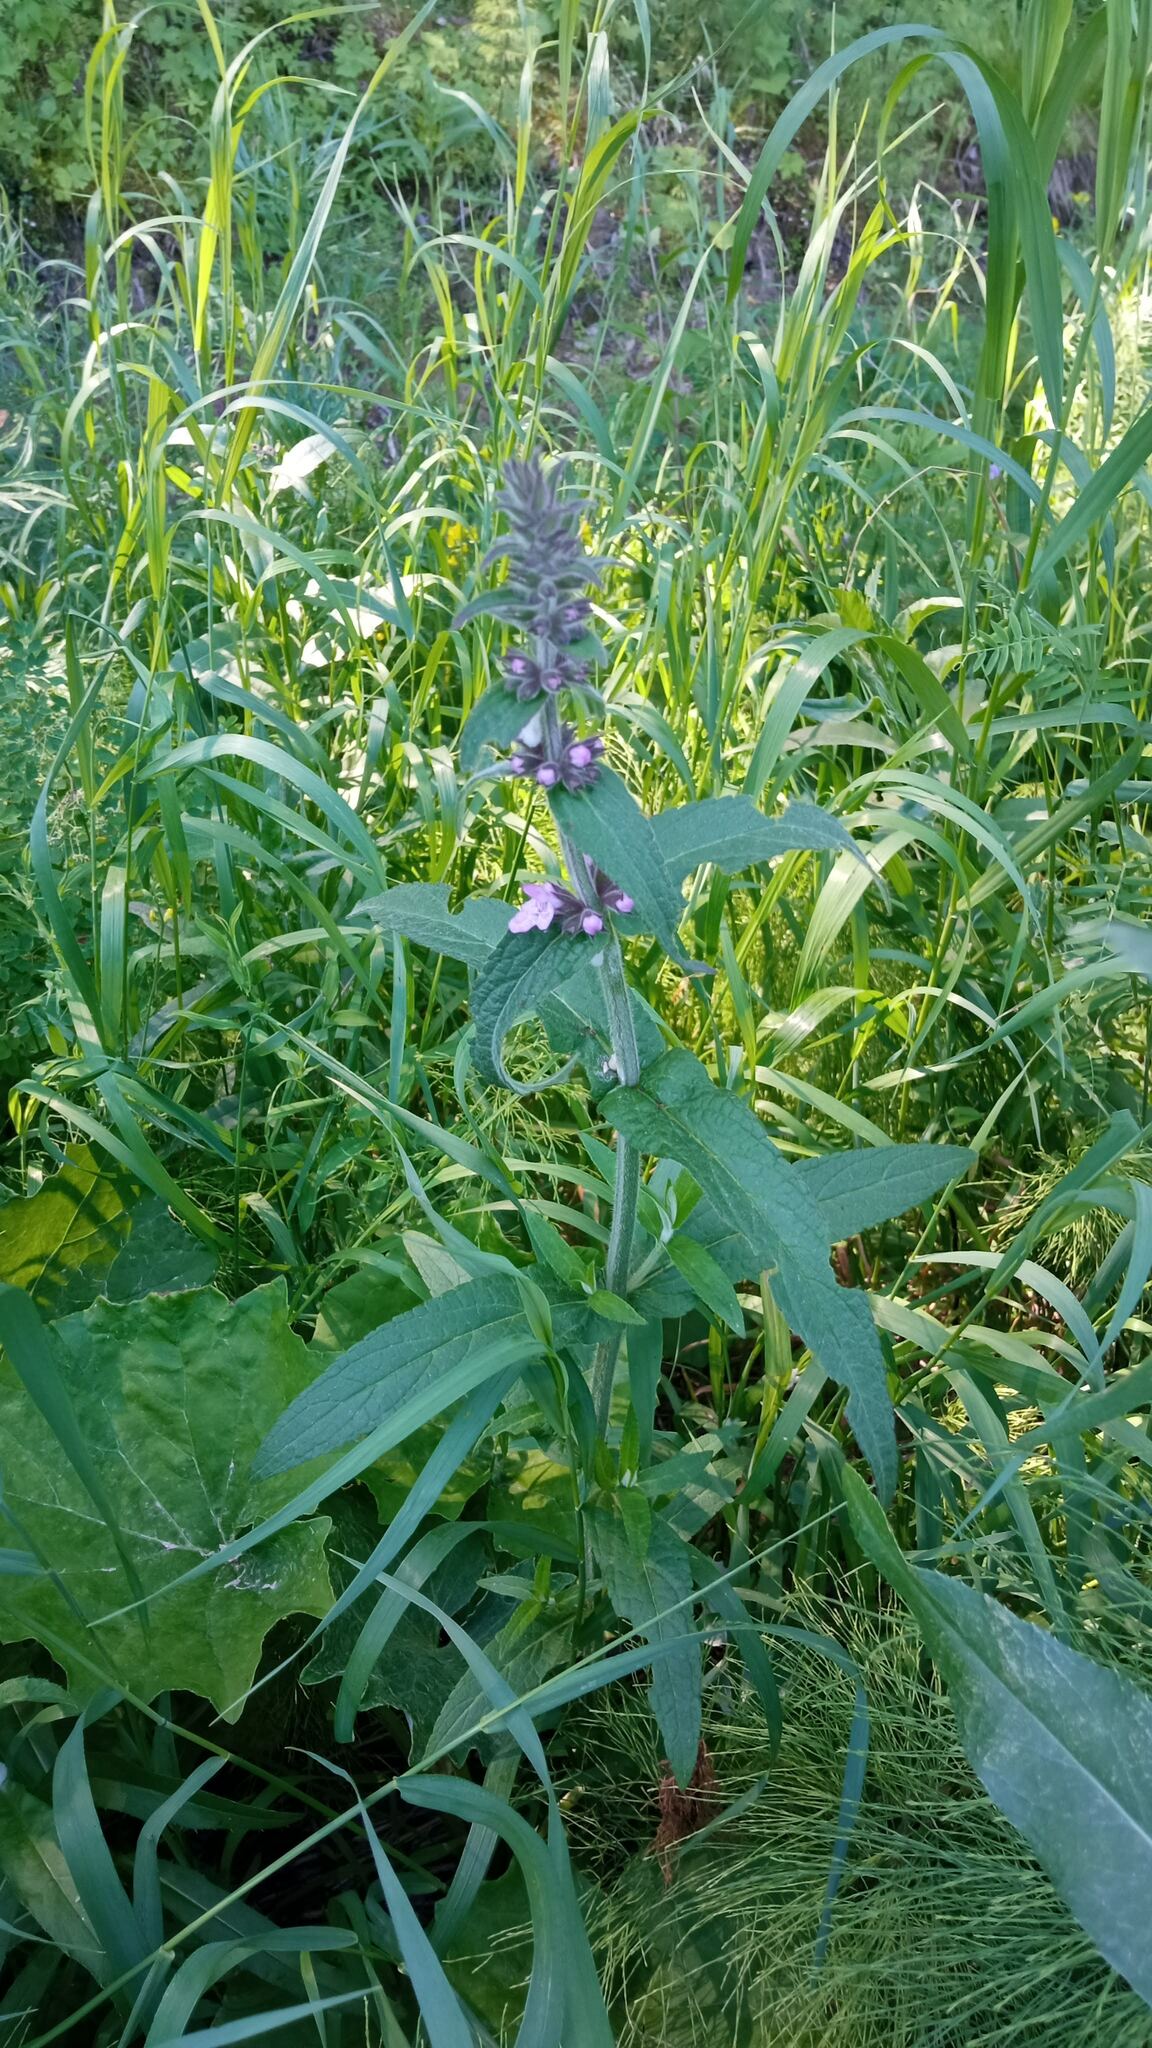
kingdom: Plantae
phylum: Tracheophyta
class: Magnoliopsida
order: Lamiales
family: Lamiaceae
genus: Stachys
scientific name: Stachys palustris
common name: Marsh woundwort
